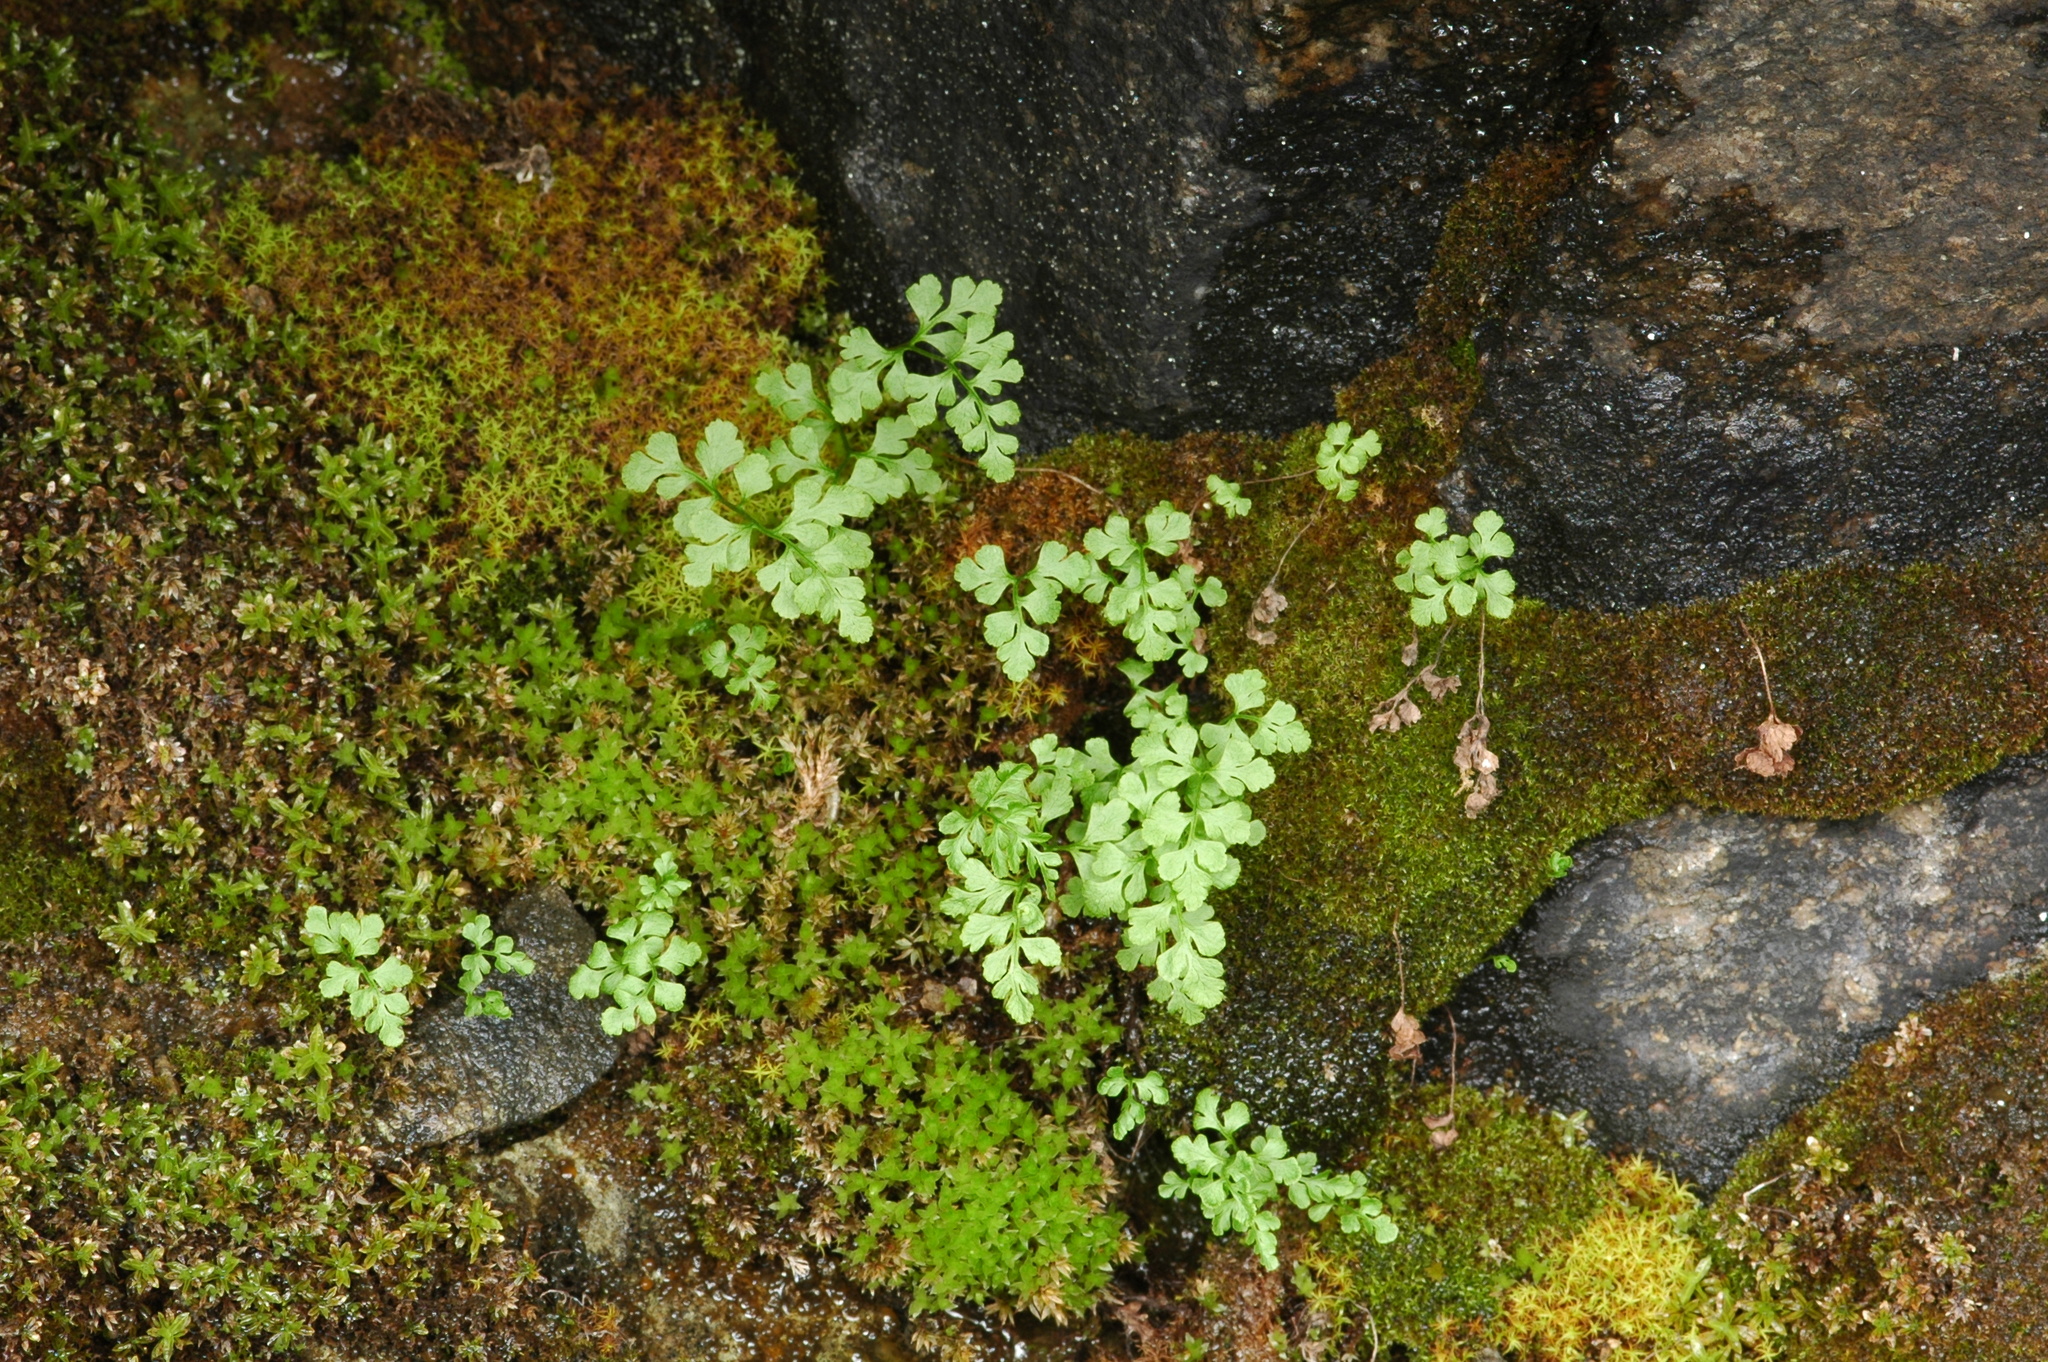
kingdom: Plantae
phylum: Tracheophyta
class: Polypodiopsida
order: Polypodiales
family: Pteridaceae
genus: Cryptogramma
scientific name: Cryptogramma stelleri
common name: Cliff-brake
